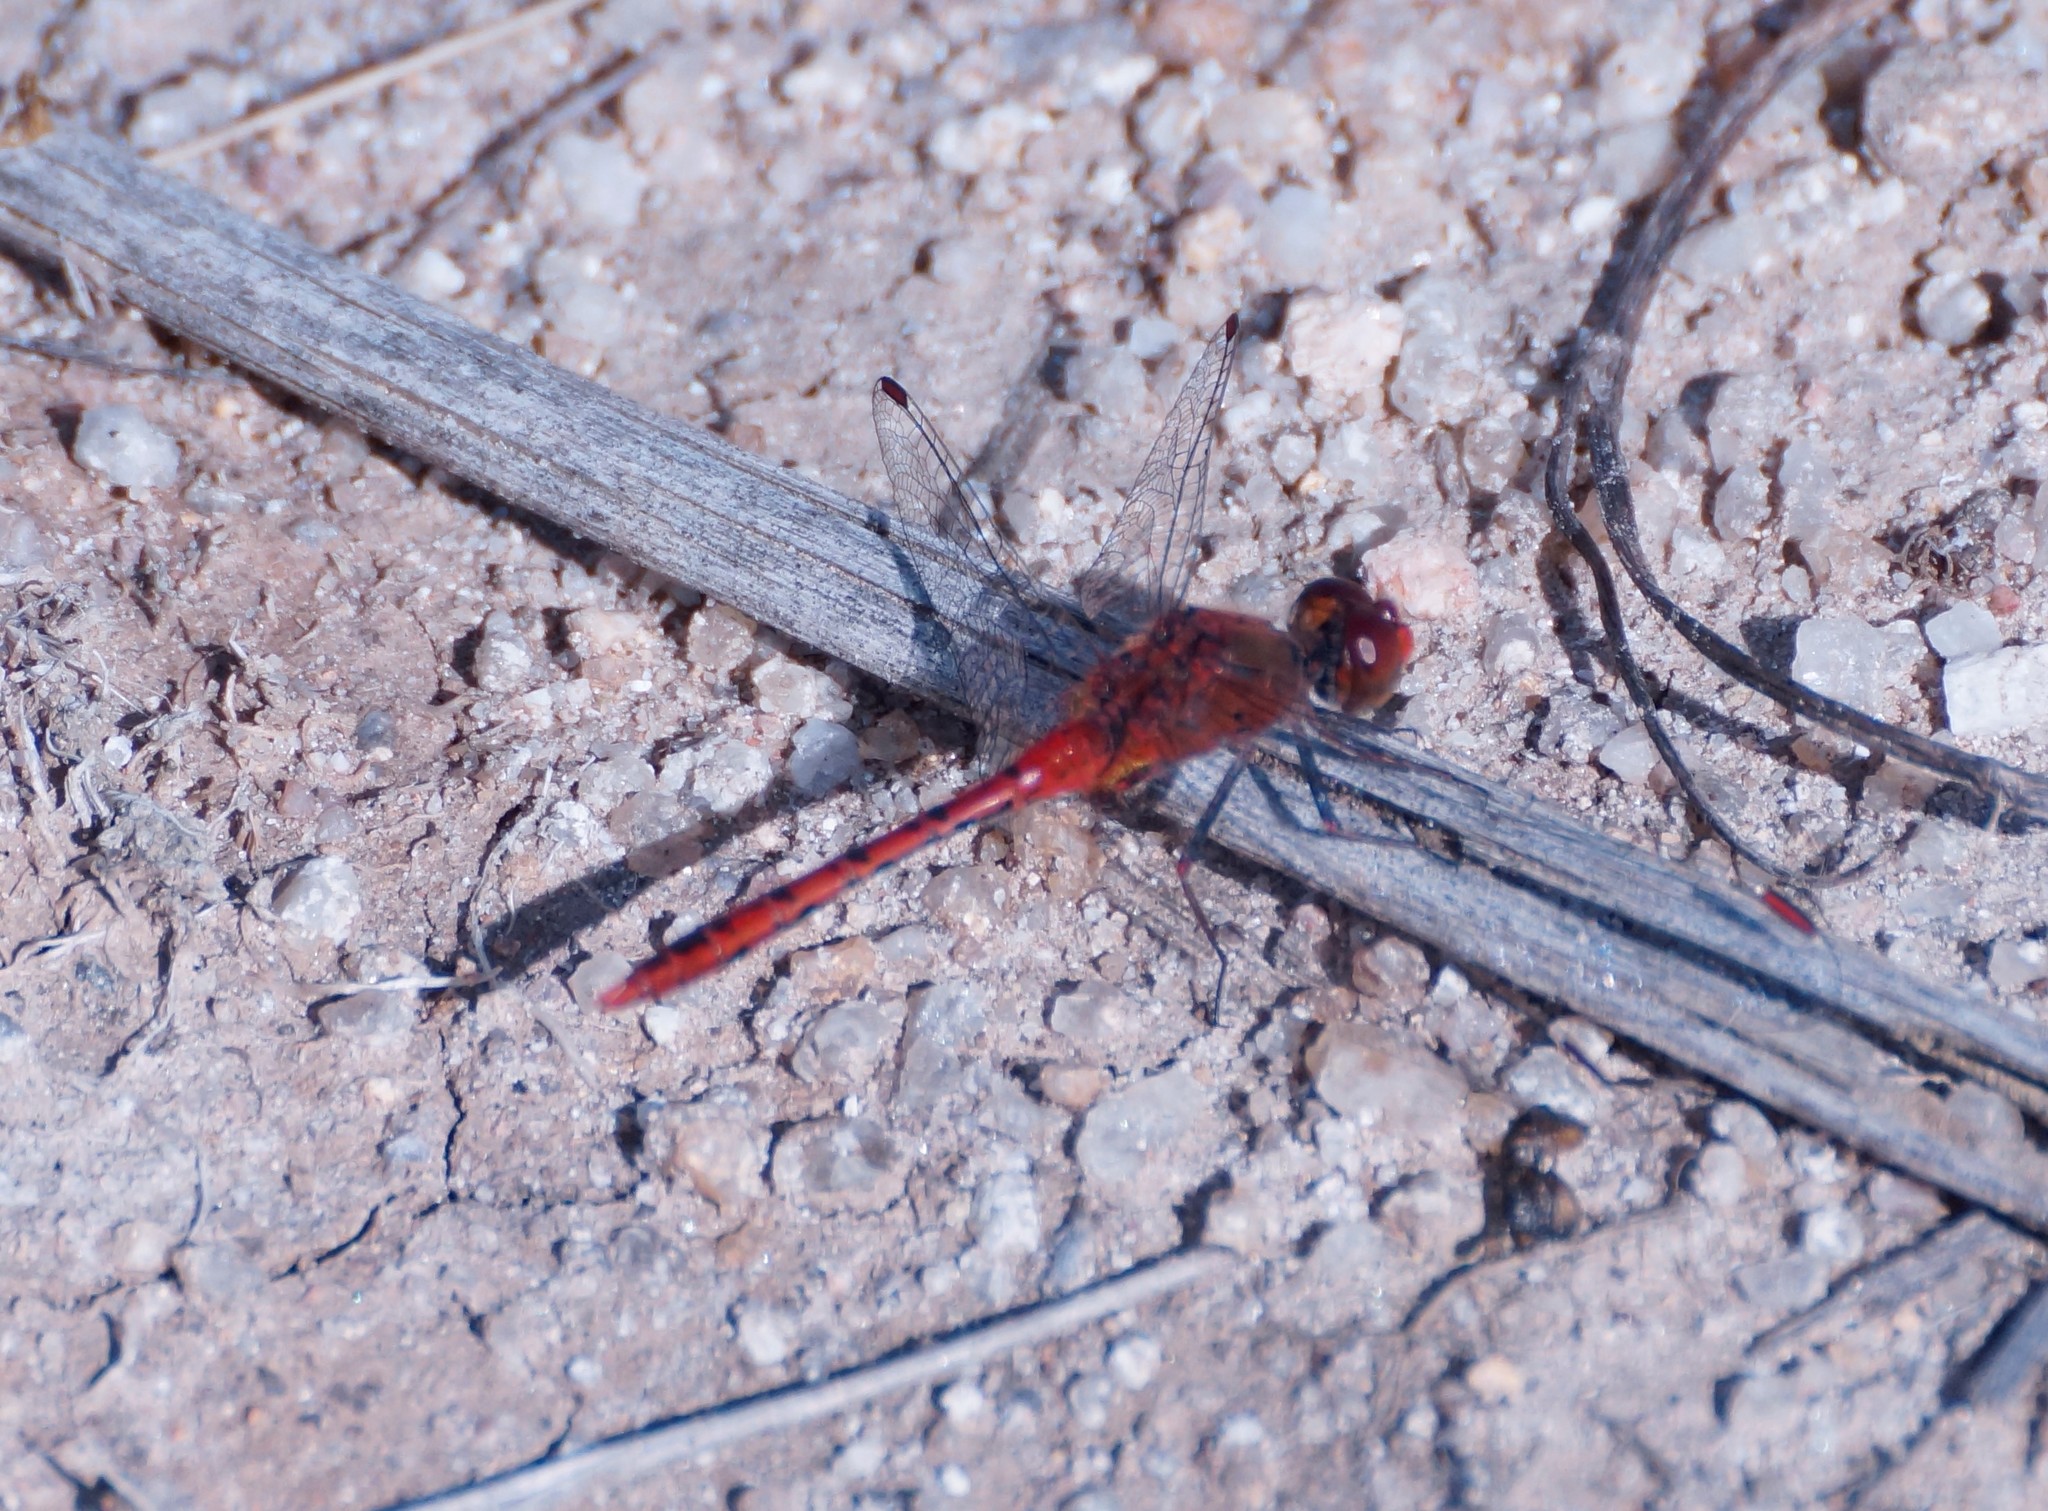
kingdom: Animalia
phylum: Arthropoda
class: Insecta
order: Odonata
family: Libellulidae
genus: Diplacodes
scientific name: Diplacodes bipunctata
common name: Red percher dragonfly
